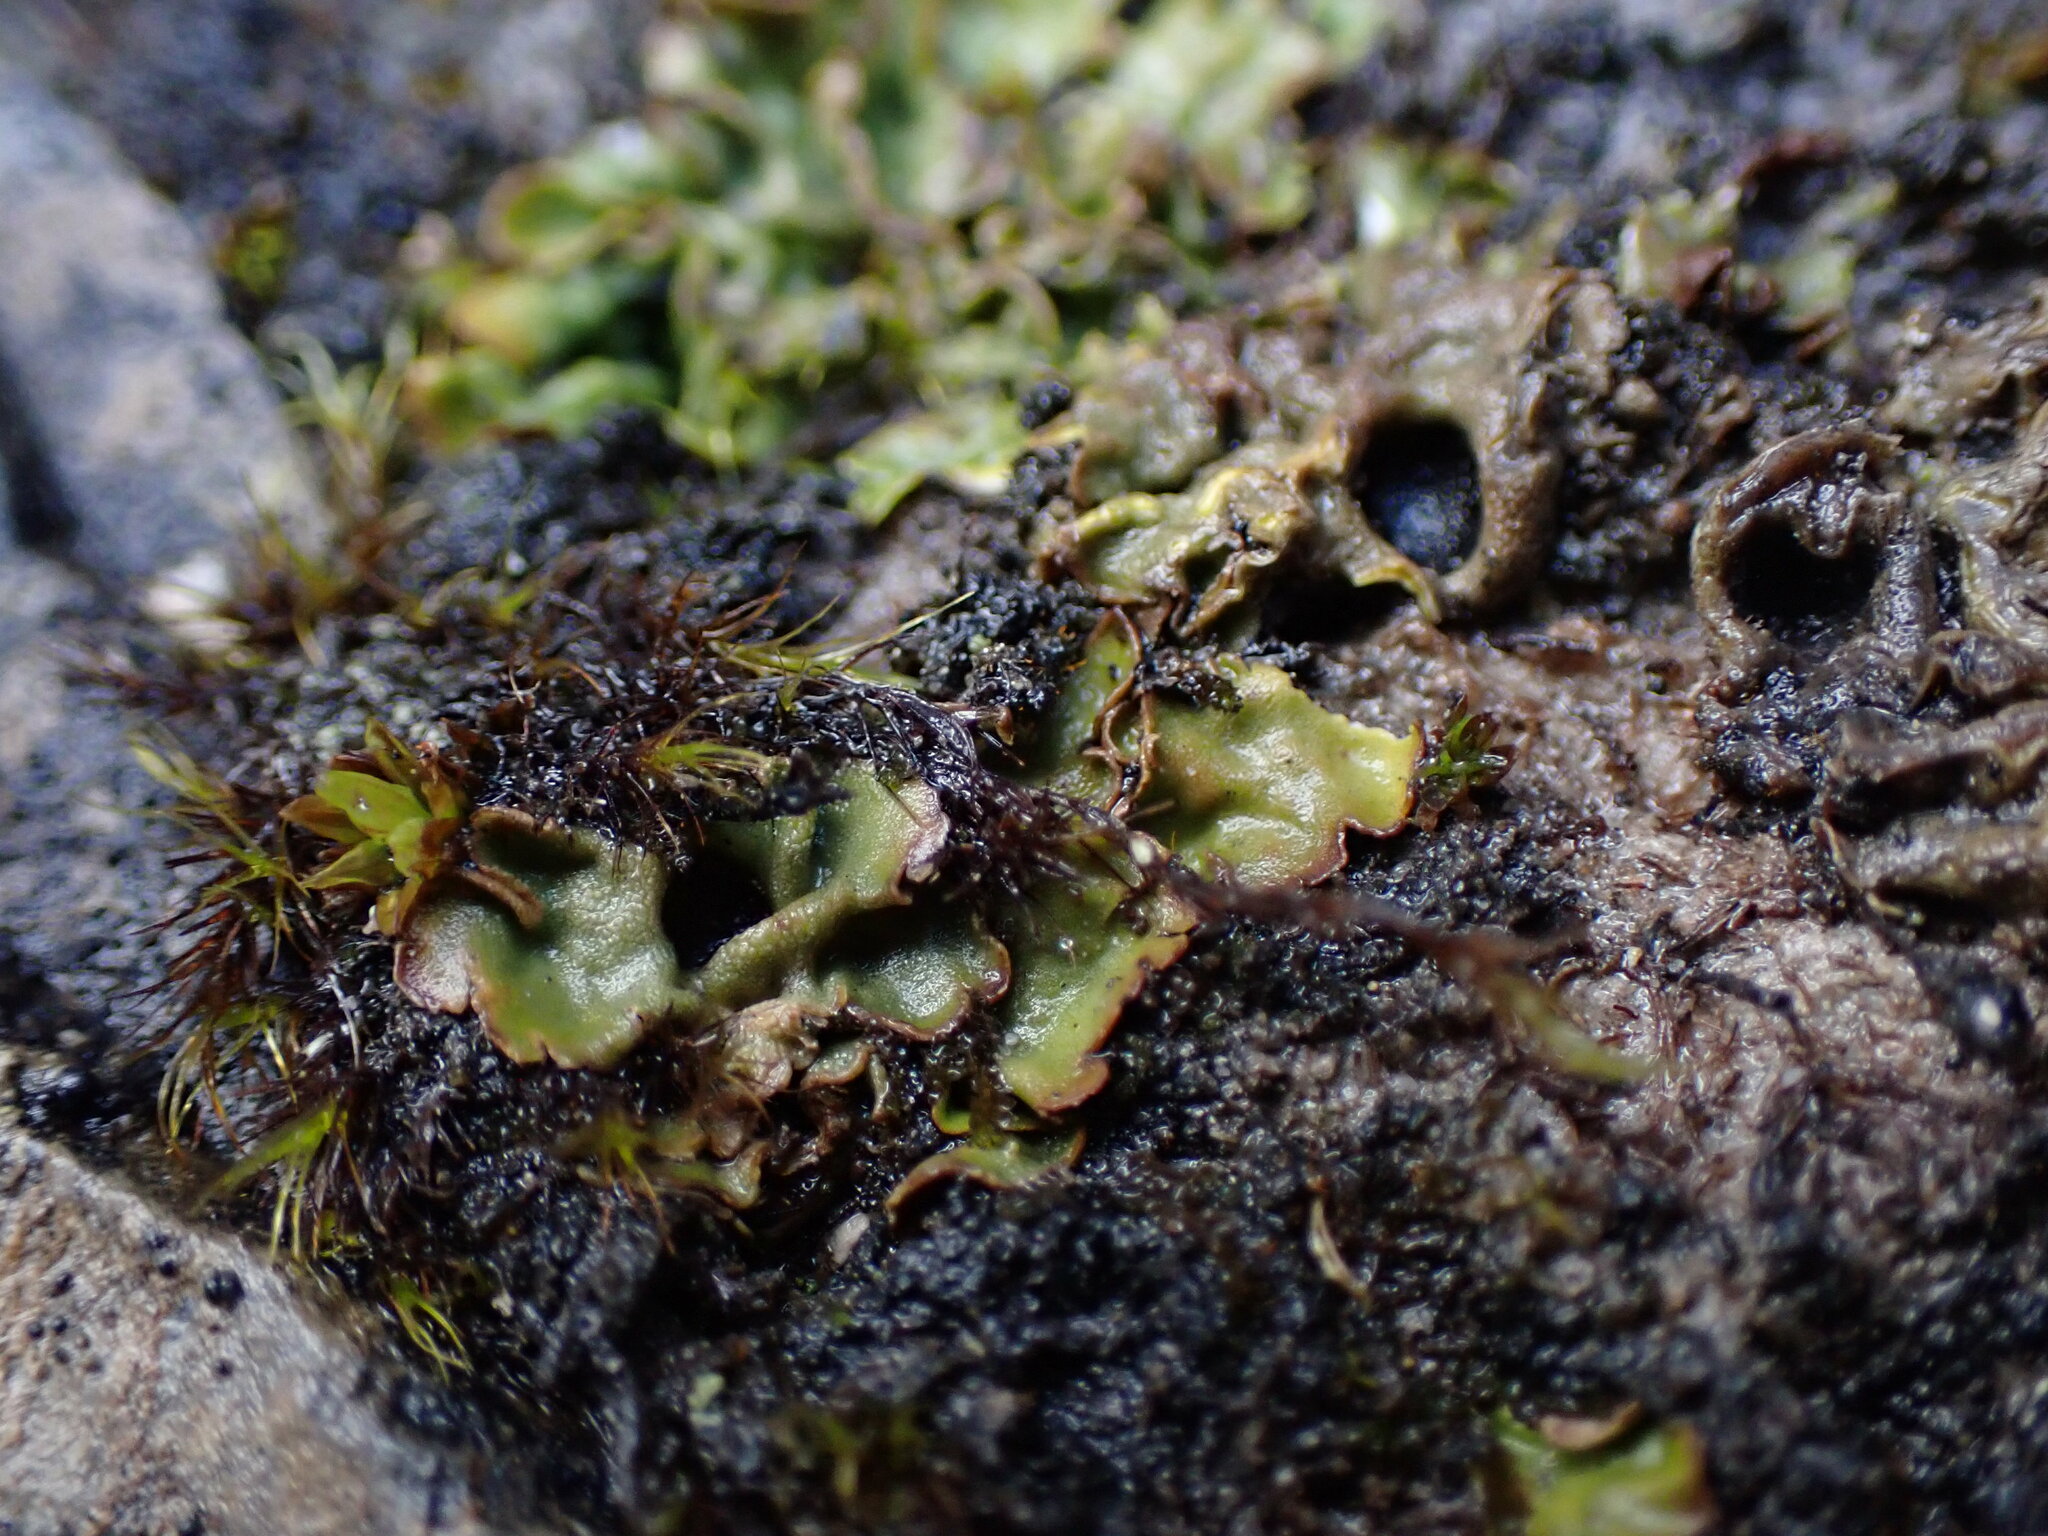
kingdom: Fungi
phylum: Ascomycota
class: Lecanoromycetes
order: Peltigerales
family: Peltigeraceae
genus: Solorina
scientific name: Solorina saccata
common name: Common chocolate chip lichen
